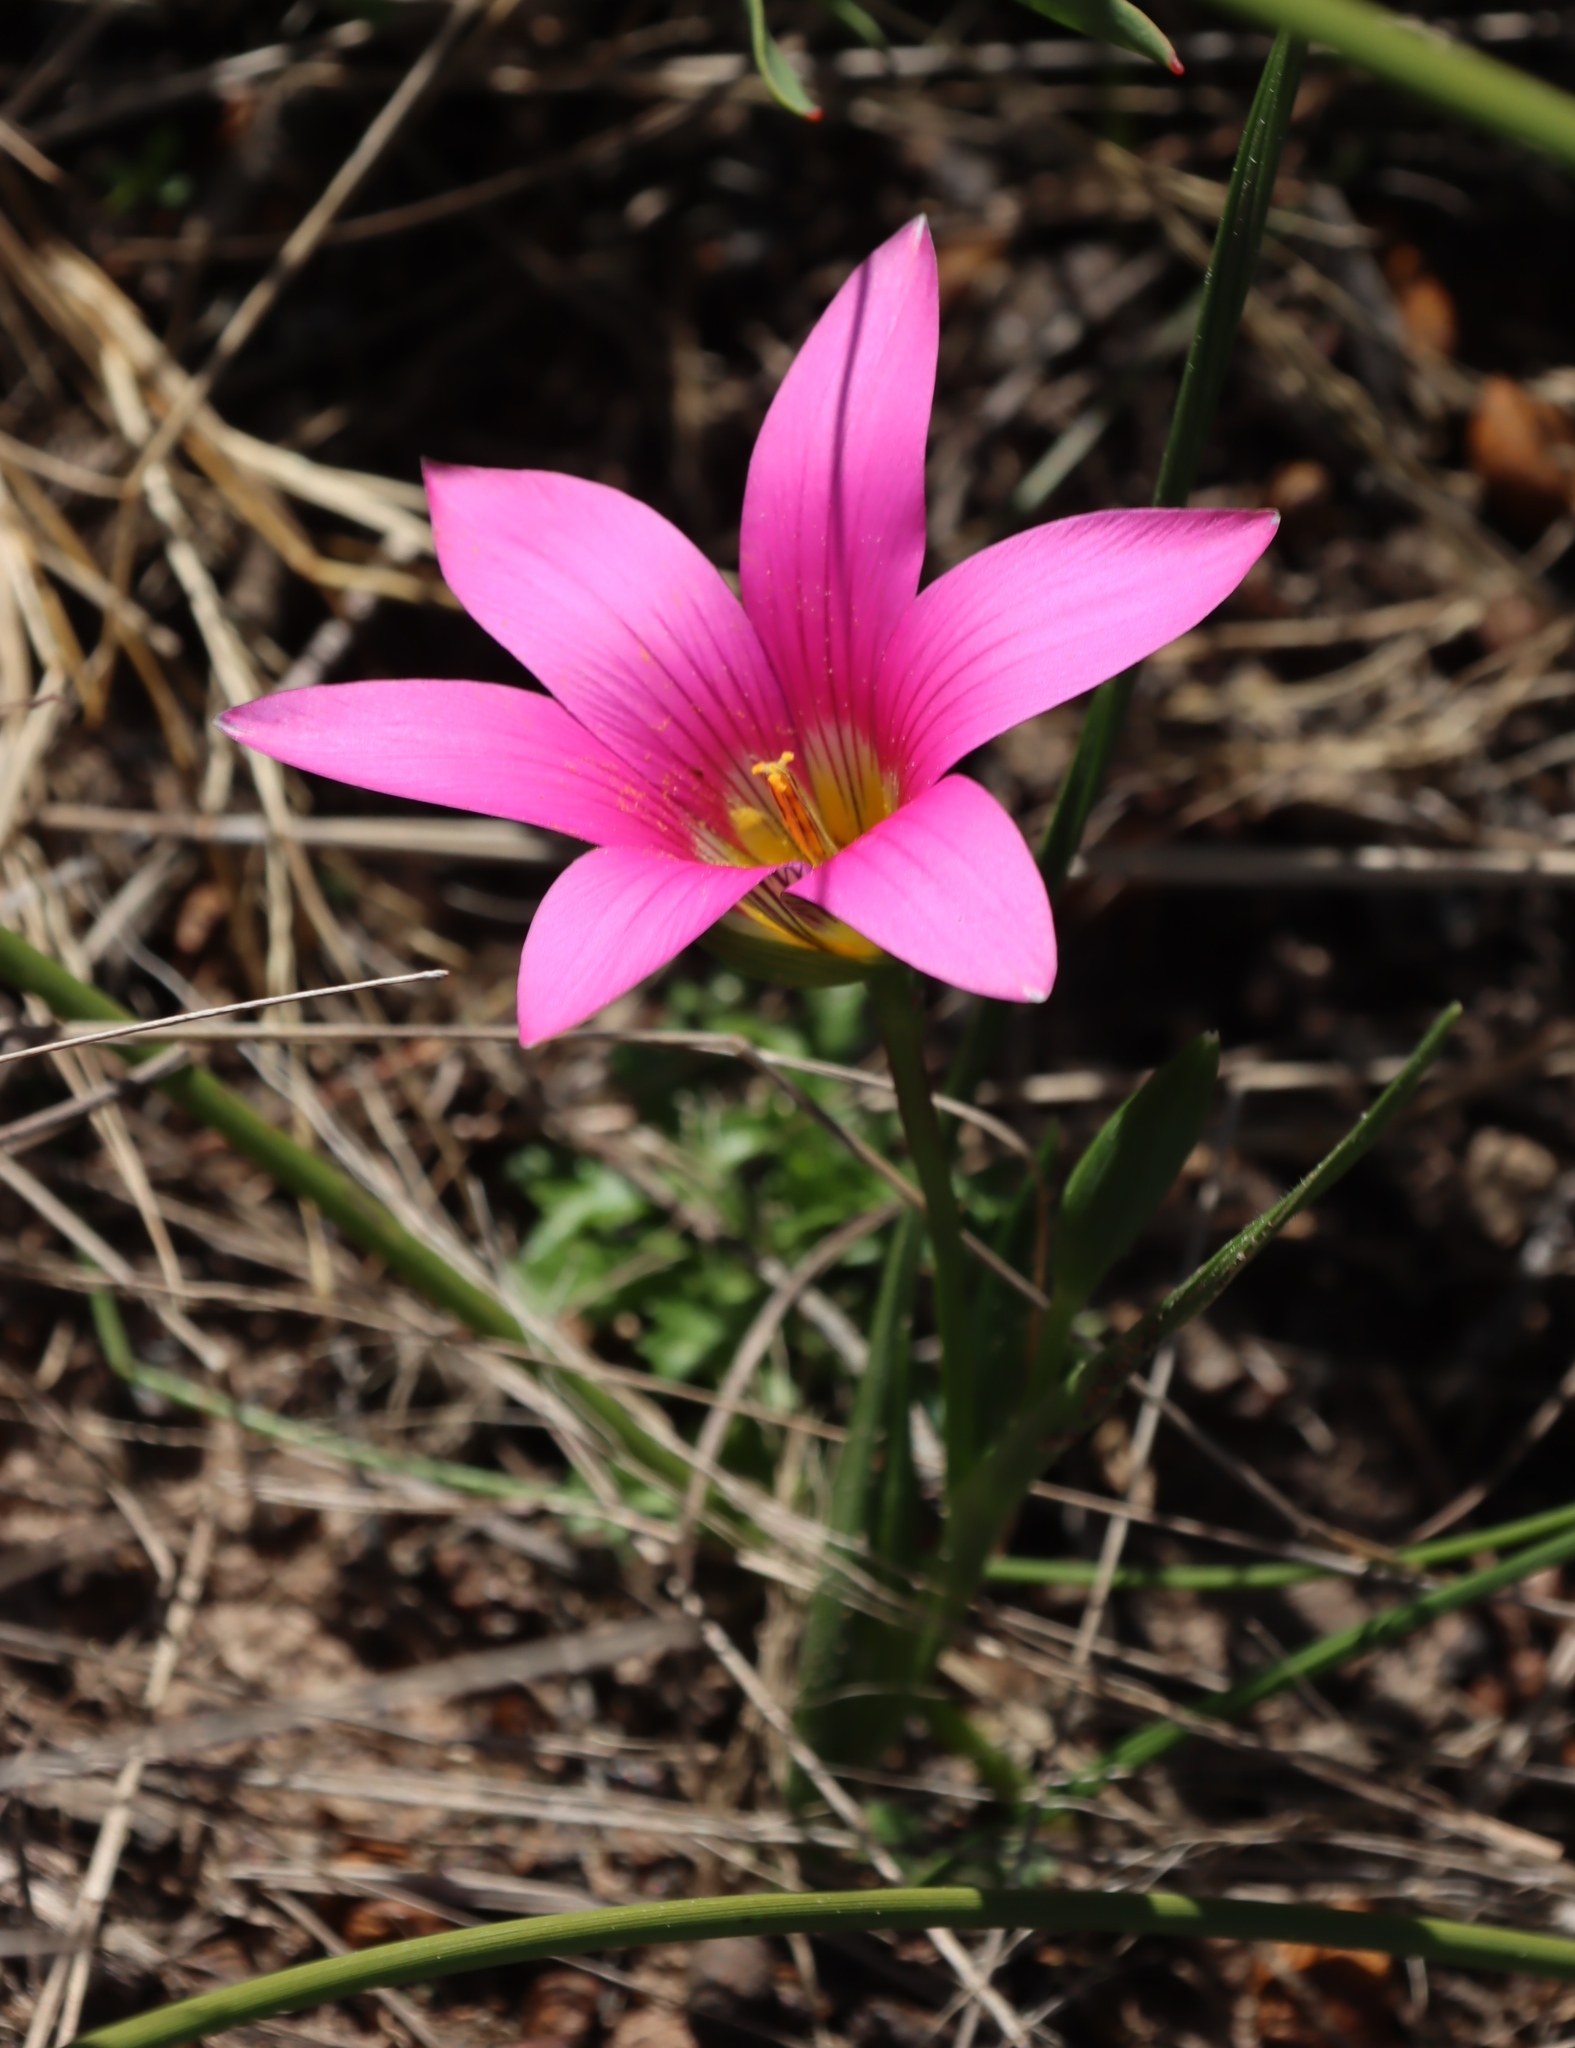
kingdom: Plantae
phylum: Tracheophyta
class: Liliopsida
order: Asparagales
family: Iridaceae
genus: Romulea
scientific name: Romulea rosea
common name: Oniongrass
